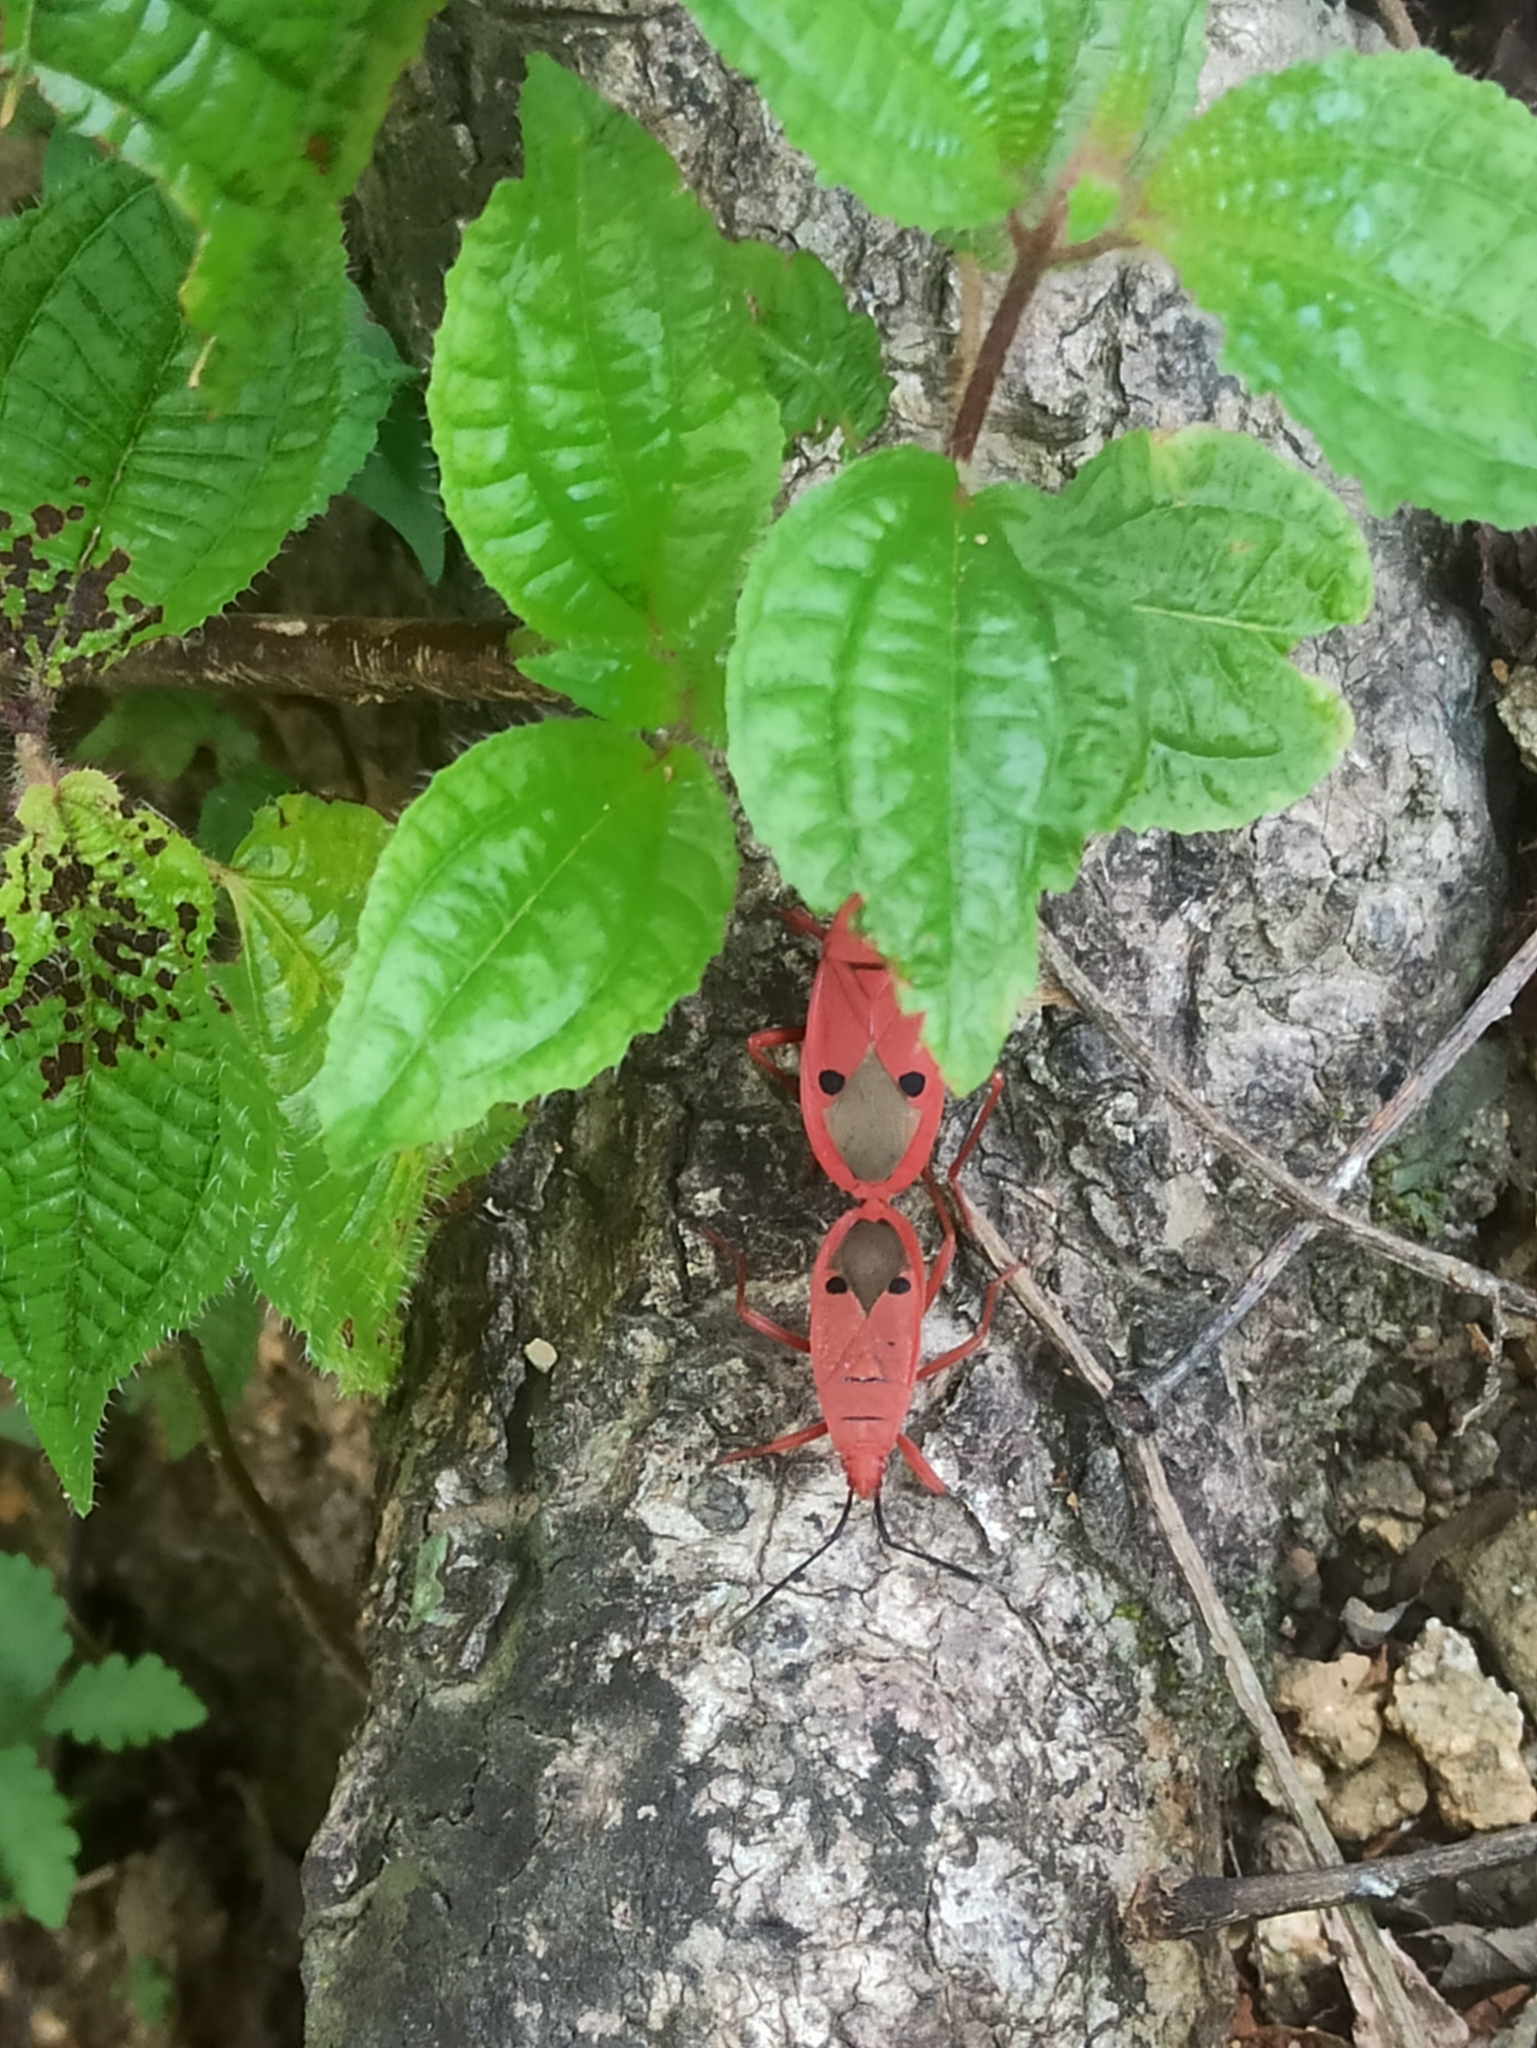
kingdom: Animalia
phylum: Arthropoda
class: Insecta
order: Hemiptera
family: Pyrrhocoridae
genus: Probergrothius
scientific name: Probergrothius nigricornis
